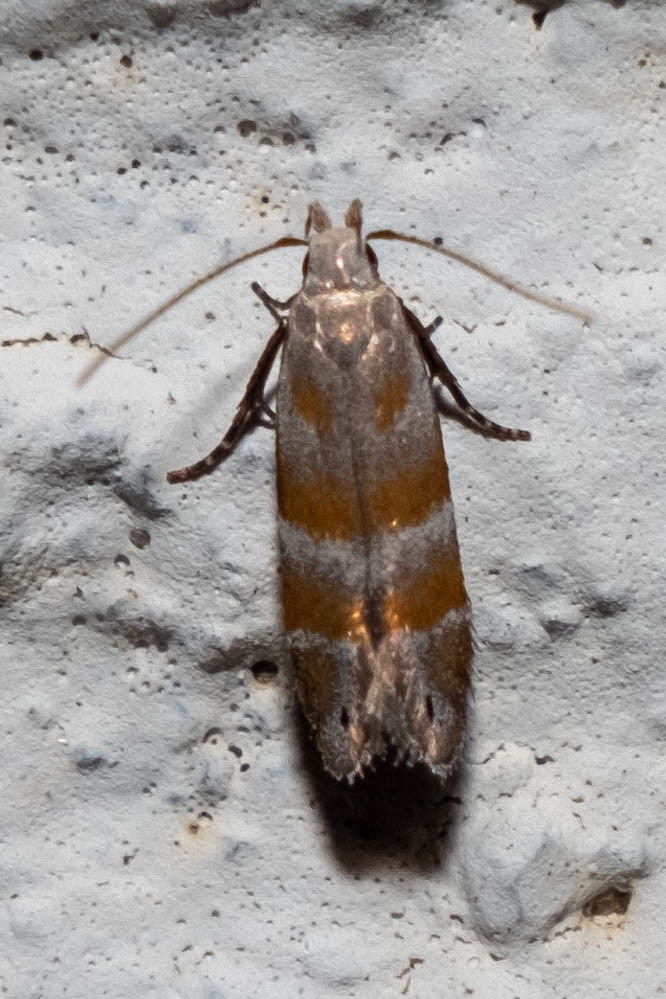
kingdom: Animalia
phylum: Arthropoda
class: Insecta
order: Lepidoptera
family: Gelechiidae
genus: Battaristis
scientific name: Battaristis vittella
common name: Orange stripe-backed moth
